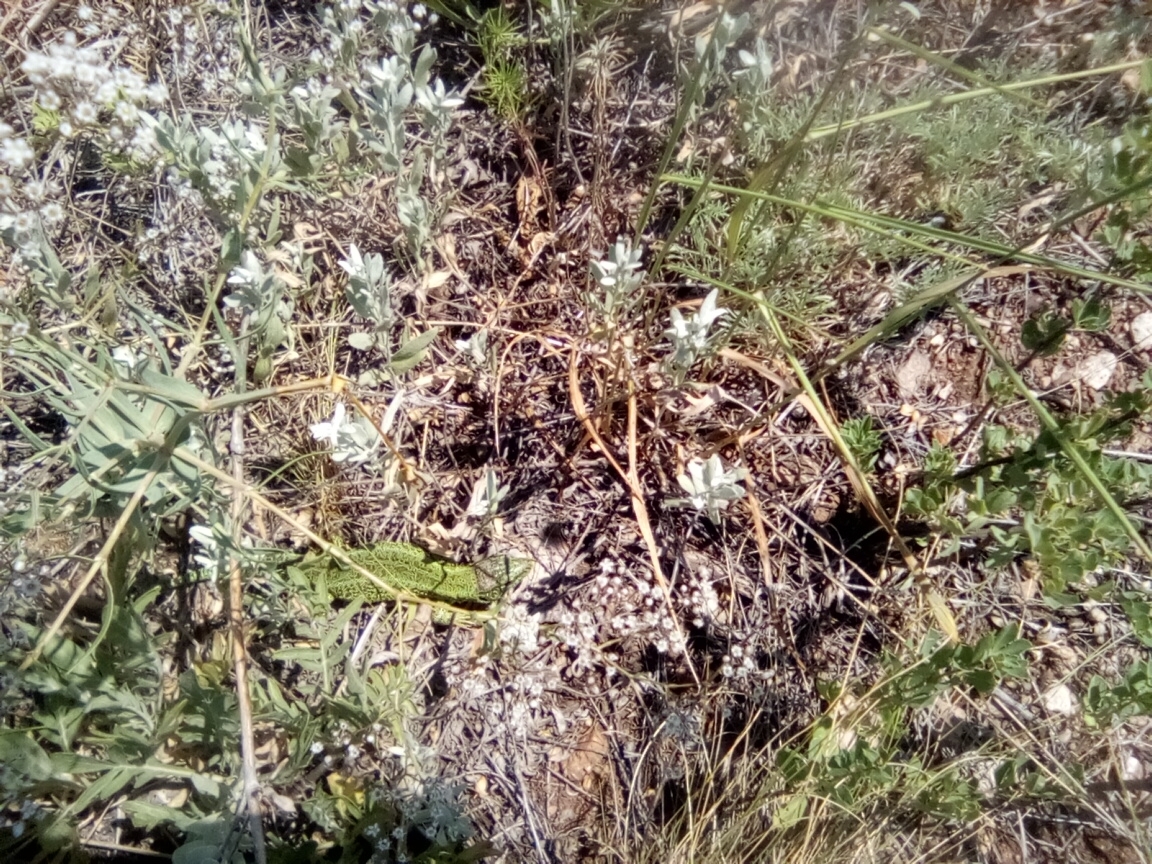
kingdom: Animalia
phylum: Chordata
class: Squamata
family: Lacertidae
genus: Lacerta
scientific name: Lacerta agilis
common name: Sand lizard
